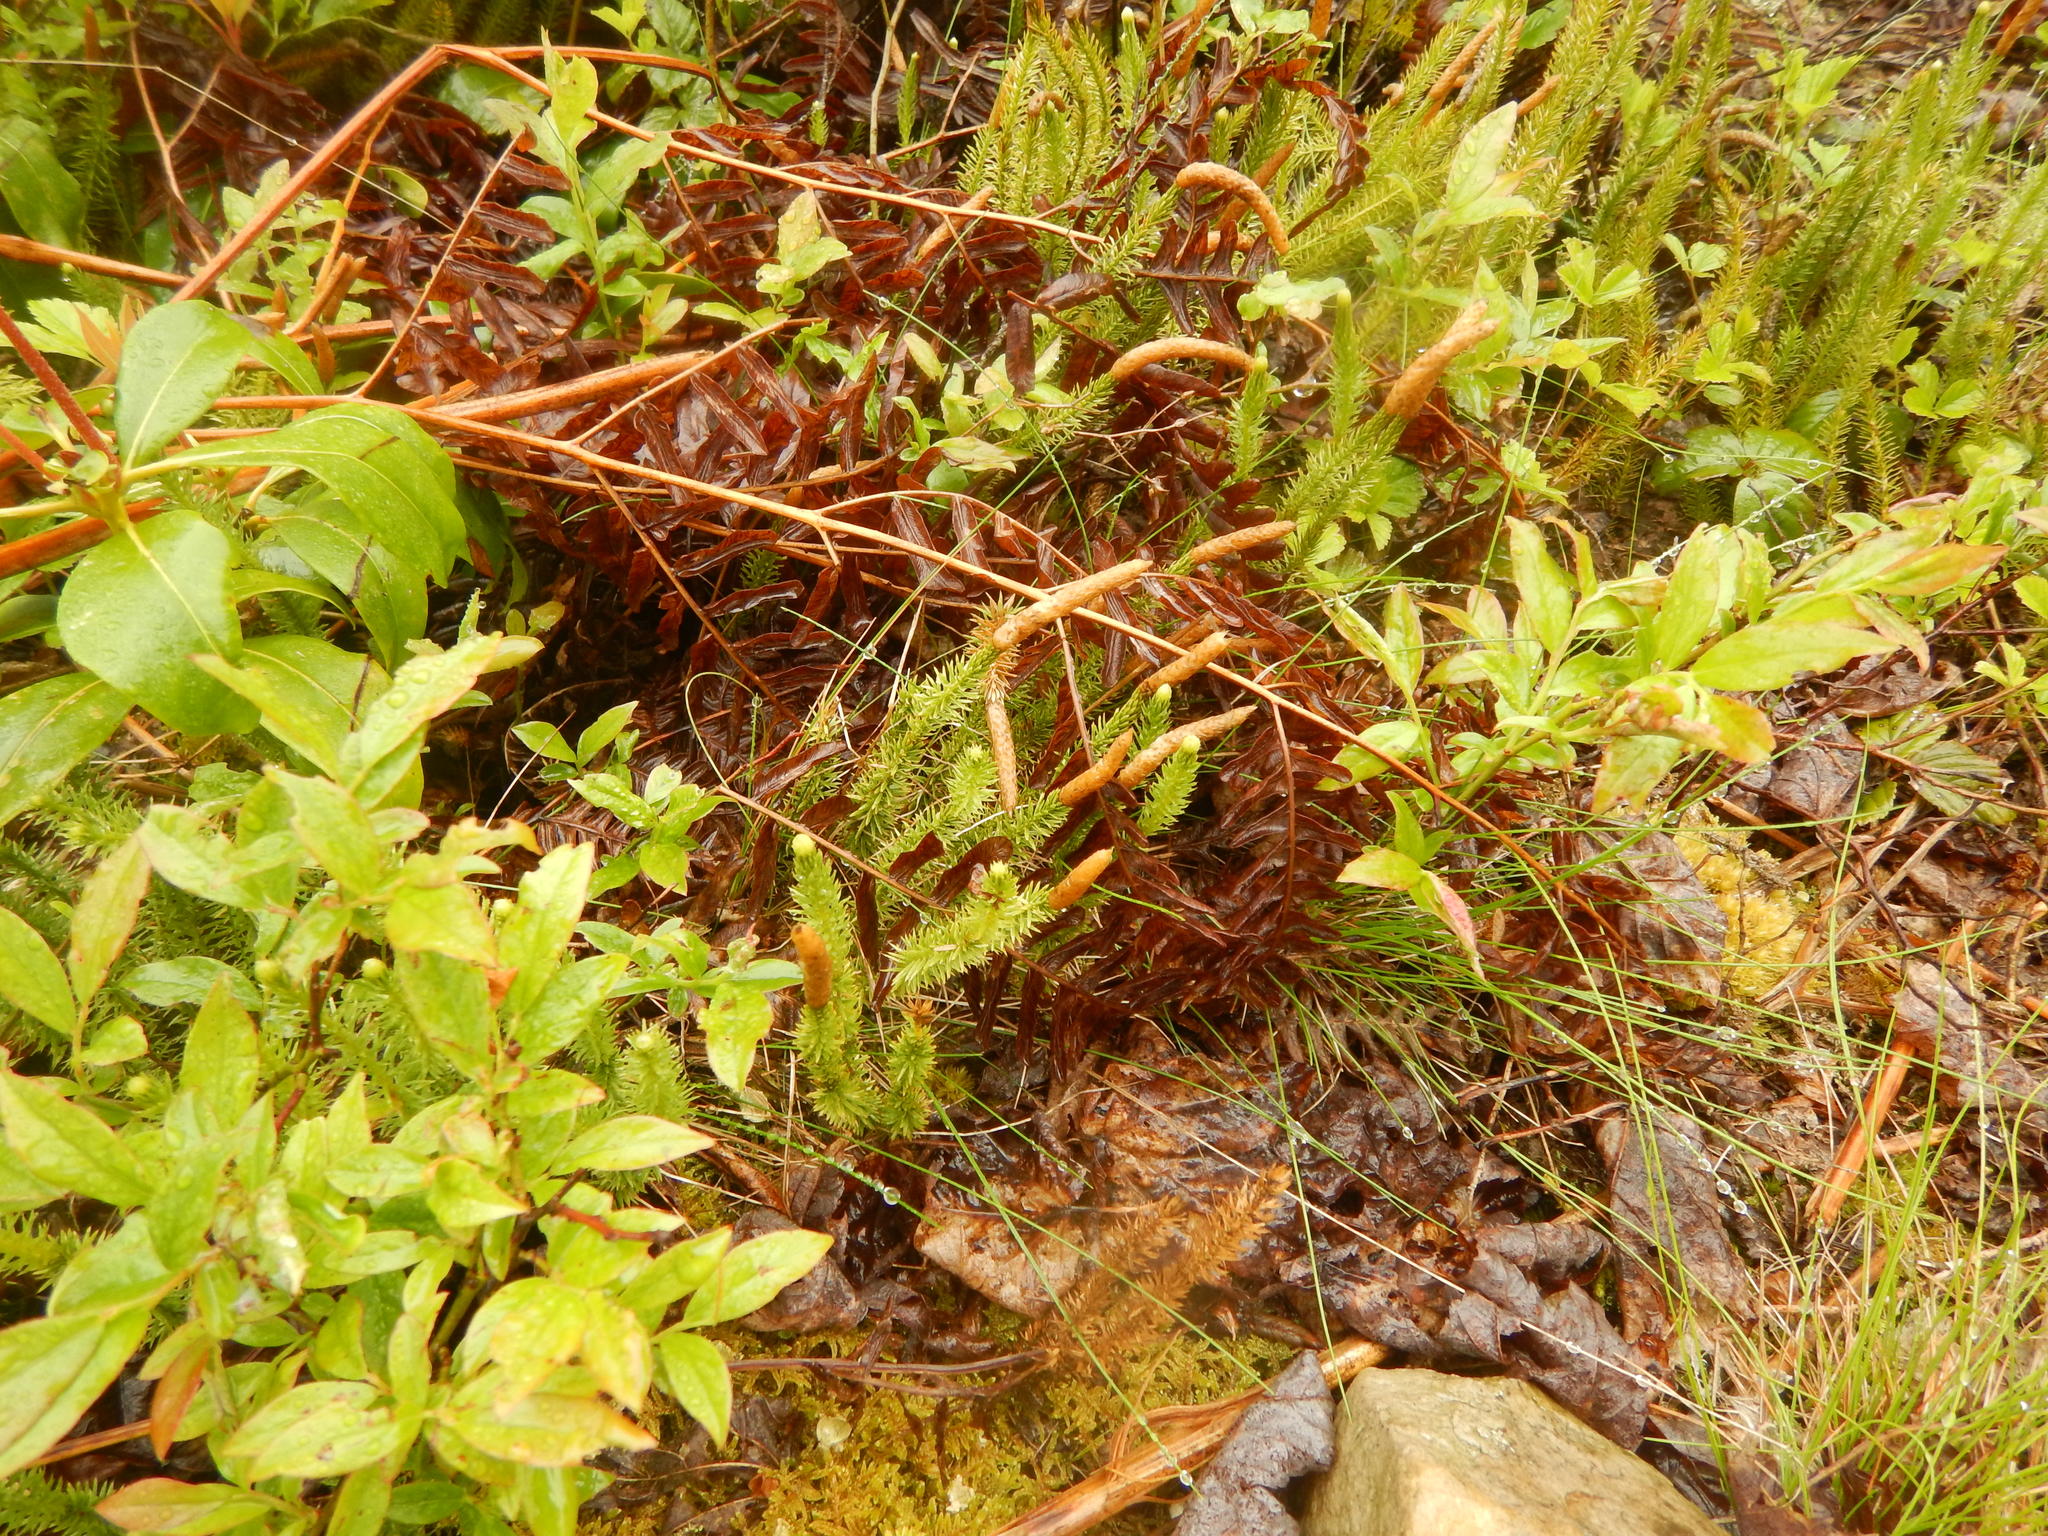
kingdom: Plantae
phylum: Tracheophyta
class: Lycopodiopsida
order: Lycopodiales
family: Lycopodiaceae
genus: Spinulum
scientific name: Spinulum annotinum
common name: Interrupted club-moss
